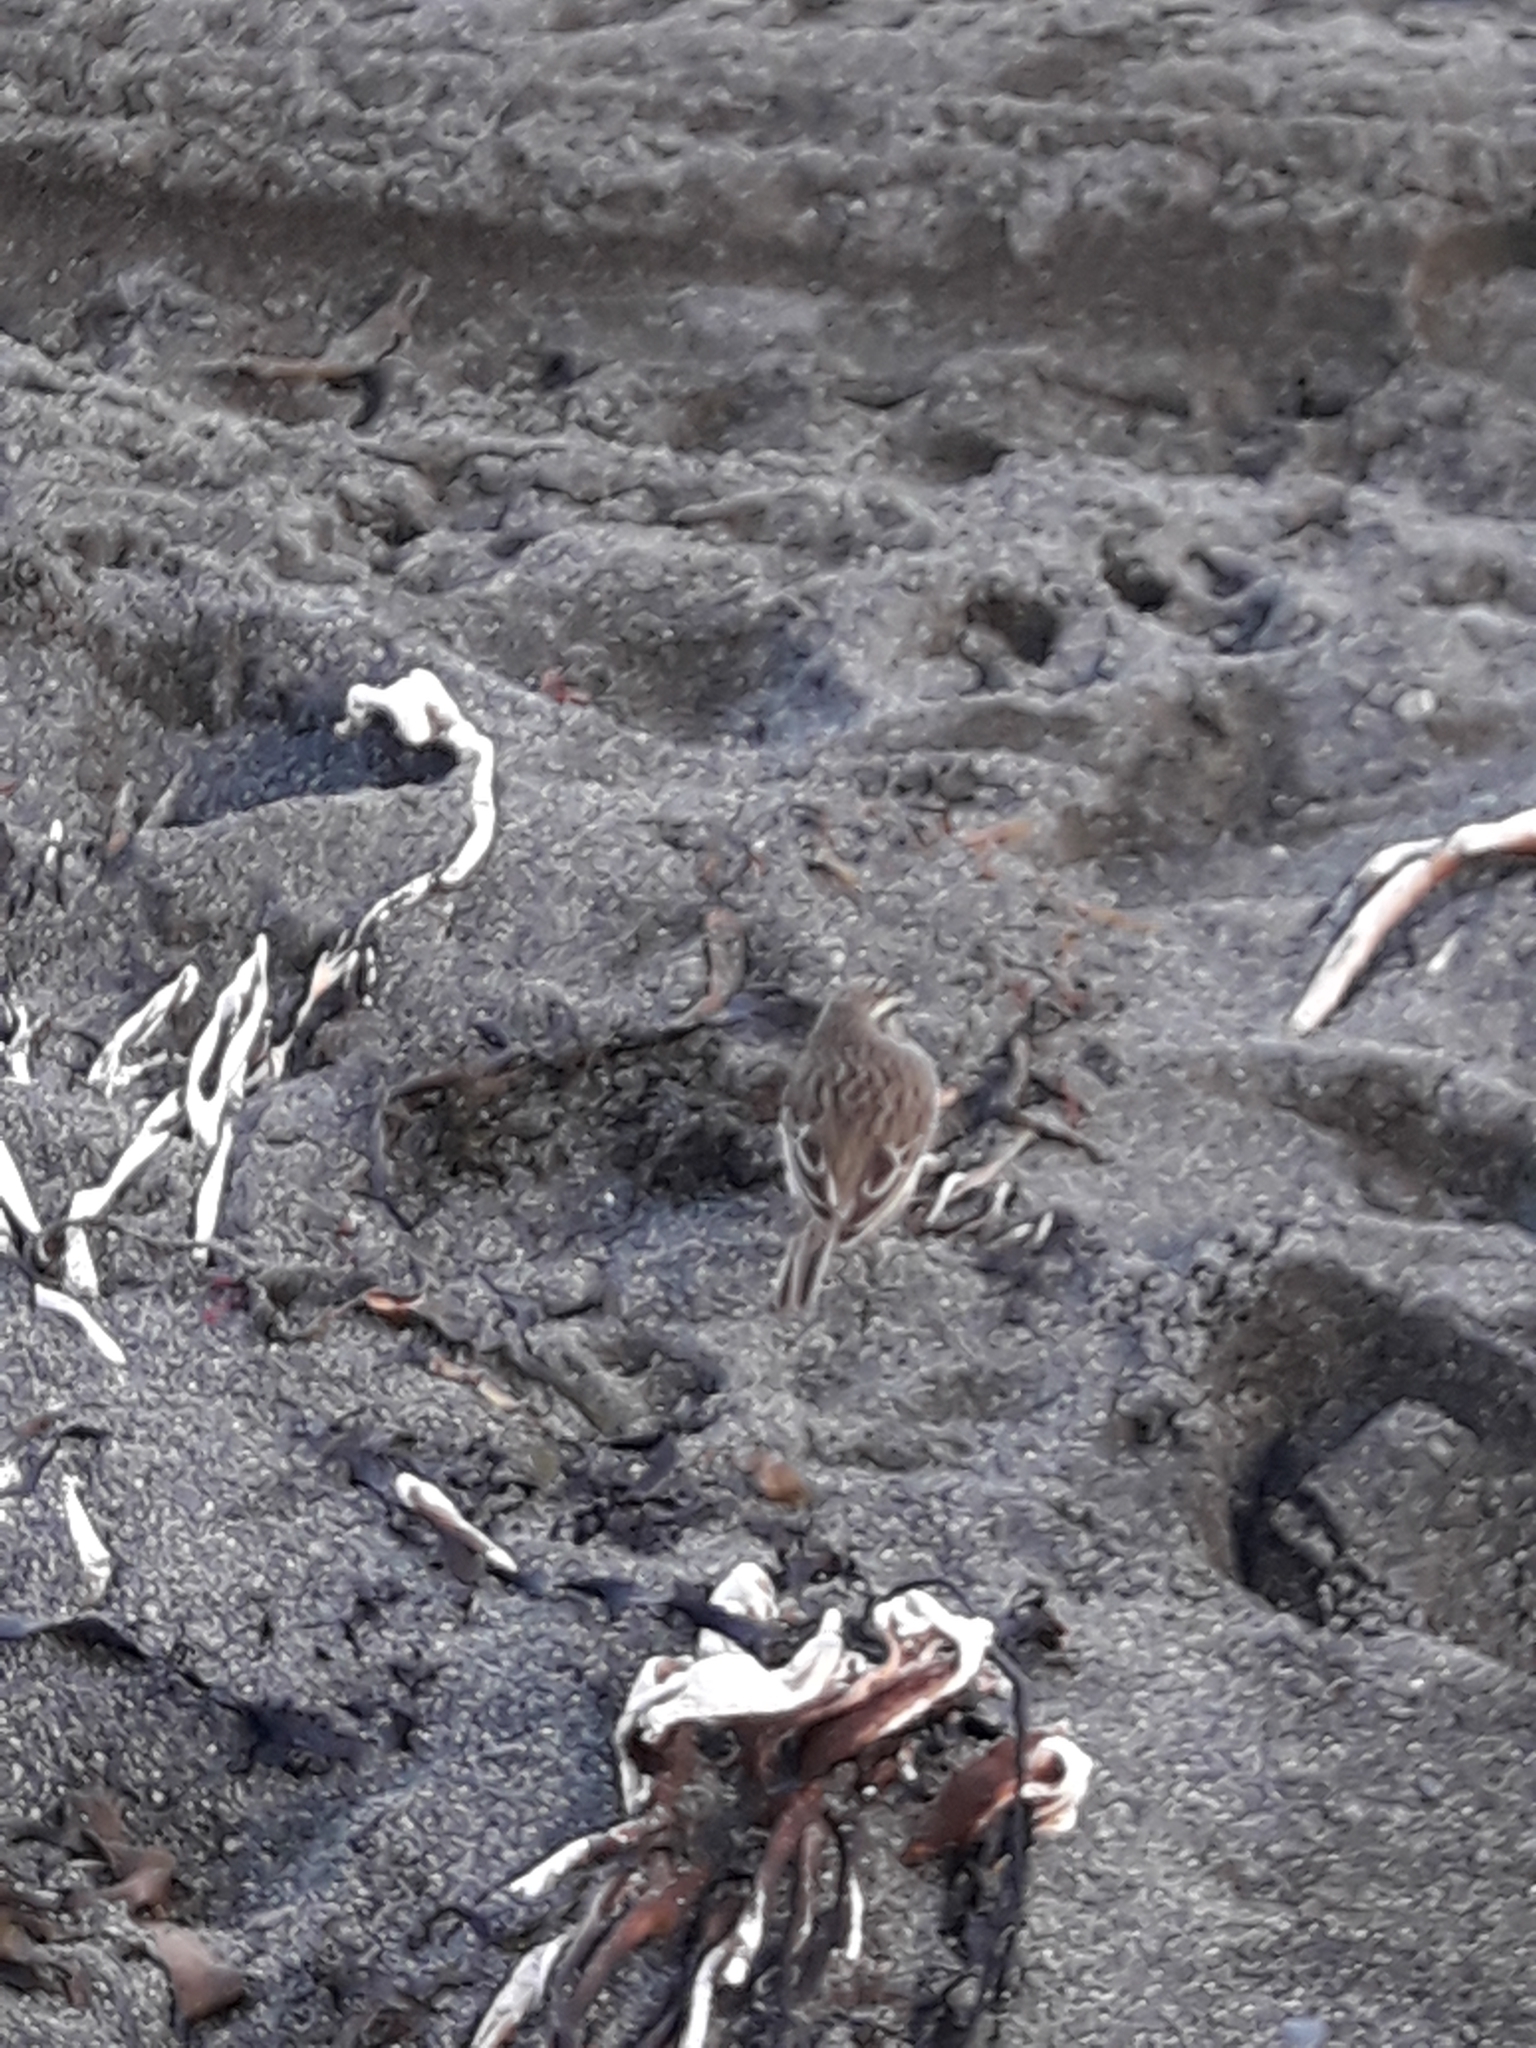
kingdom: Animalia
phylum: Chordata
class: Aves
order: Passeriformes
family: Motacillidae
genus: Anthus
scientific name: Anthus novaeseelandiae
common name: New zealand pipit
